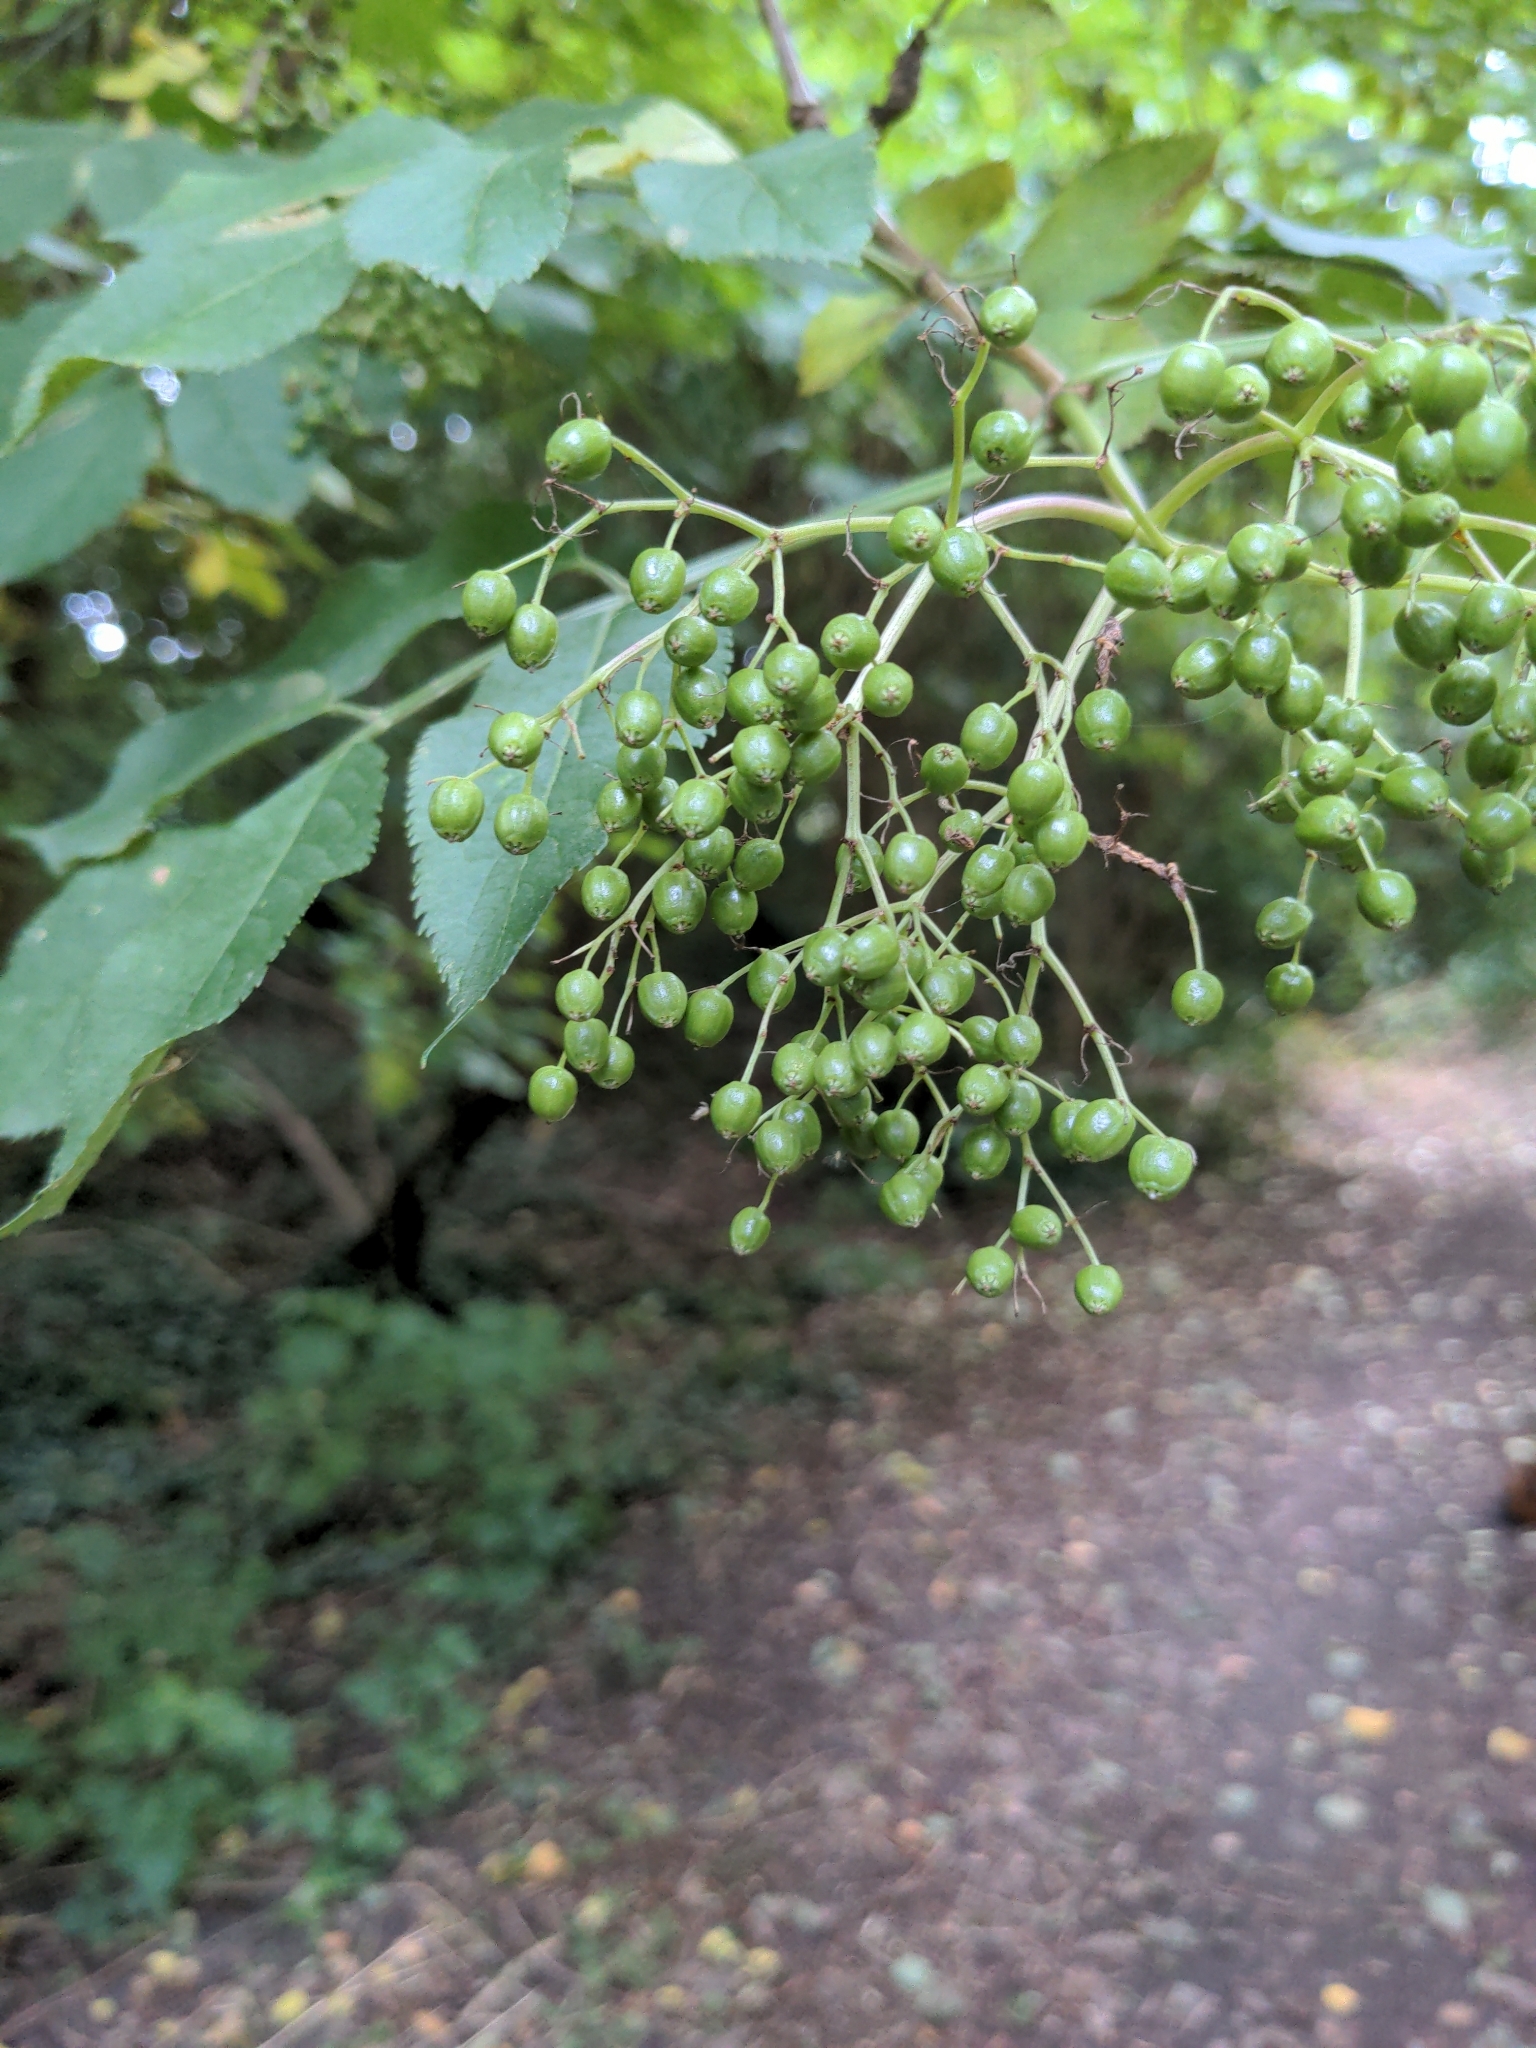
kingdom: Plantae
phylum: Tracheophyta
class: Magnoliopsida
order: Dipsacales
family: Viburnaceae
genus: Sambucus
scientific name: Sambucus nigra
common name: Elder
